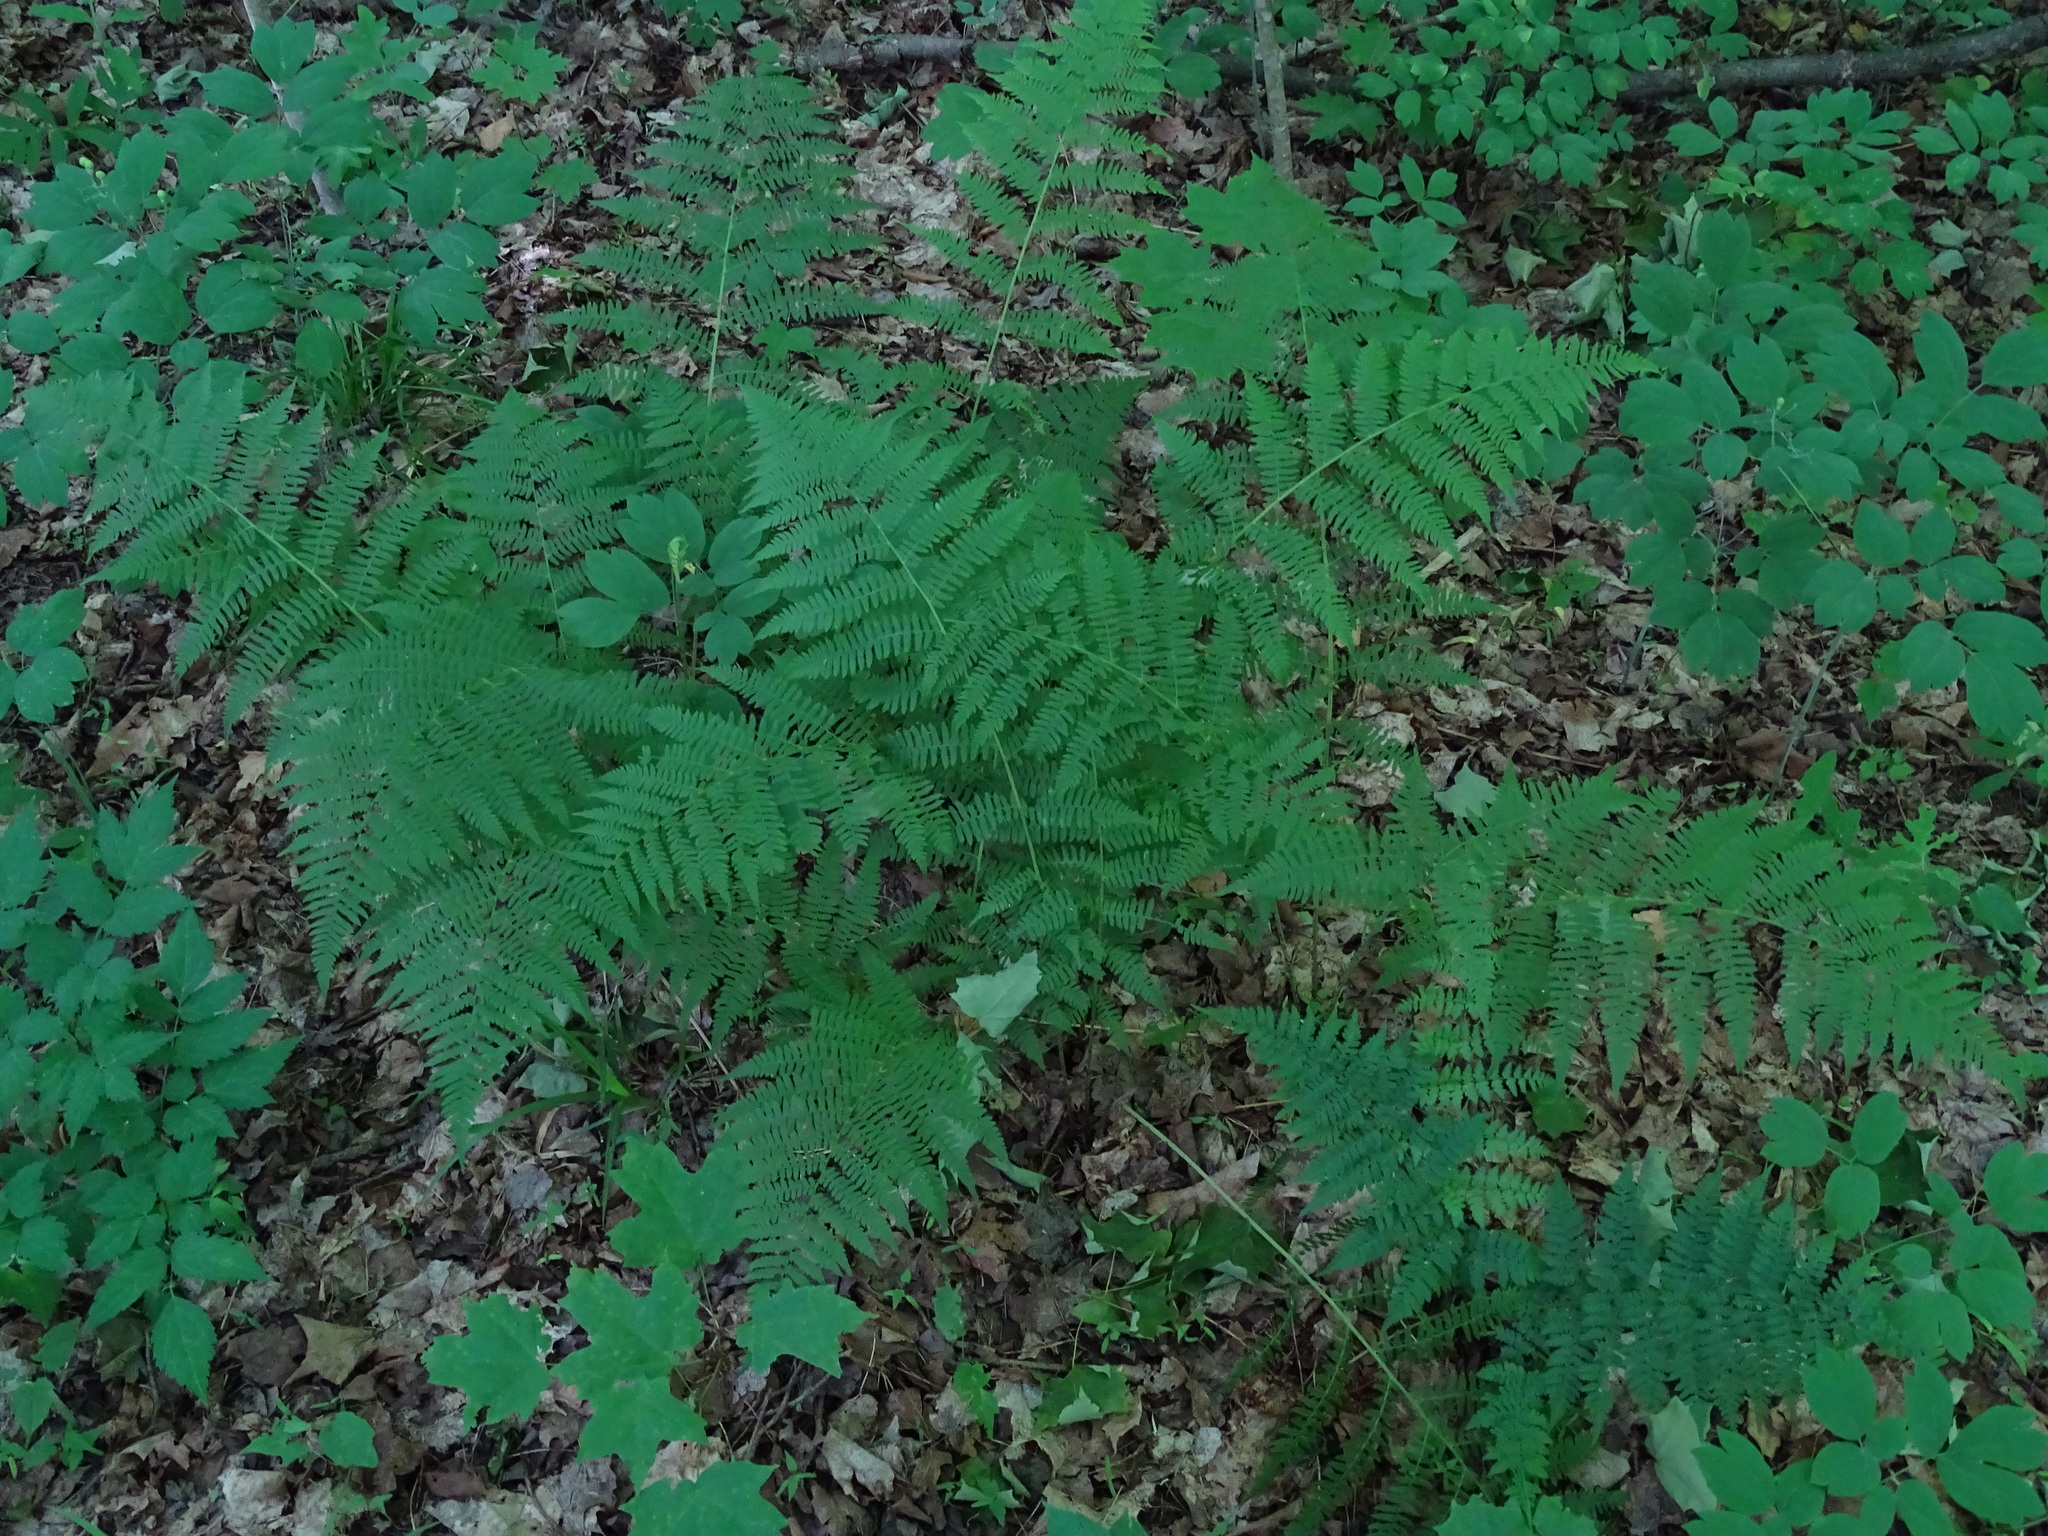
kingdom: Plantae
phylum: Tracheophyta
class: Polypodiopsida
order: Polypodiales
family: Athyriaceae
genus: Athyrium
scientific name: Athyrium angustum
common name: Northern lady fern
